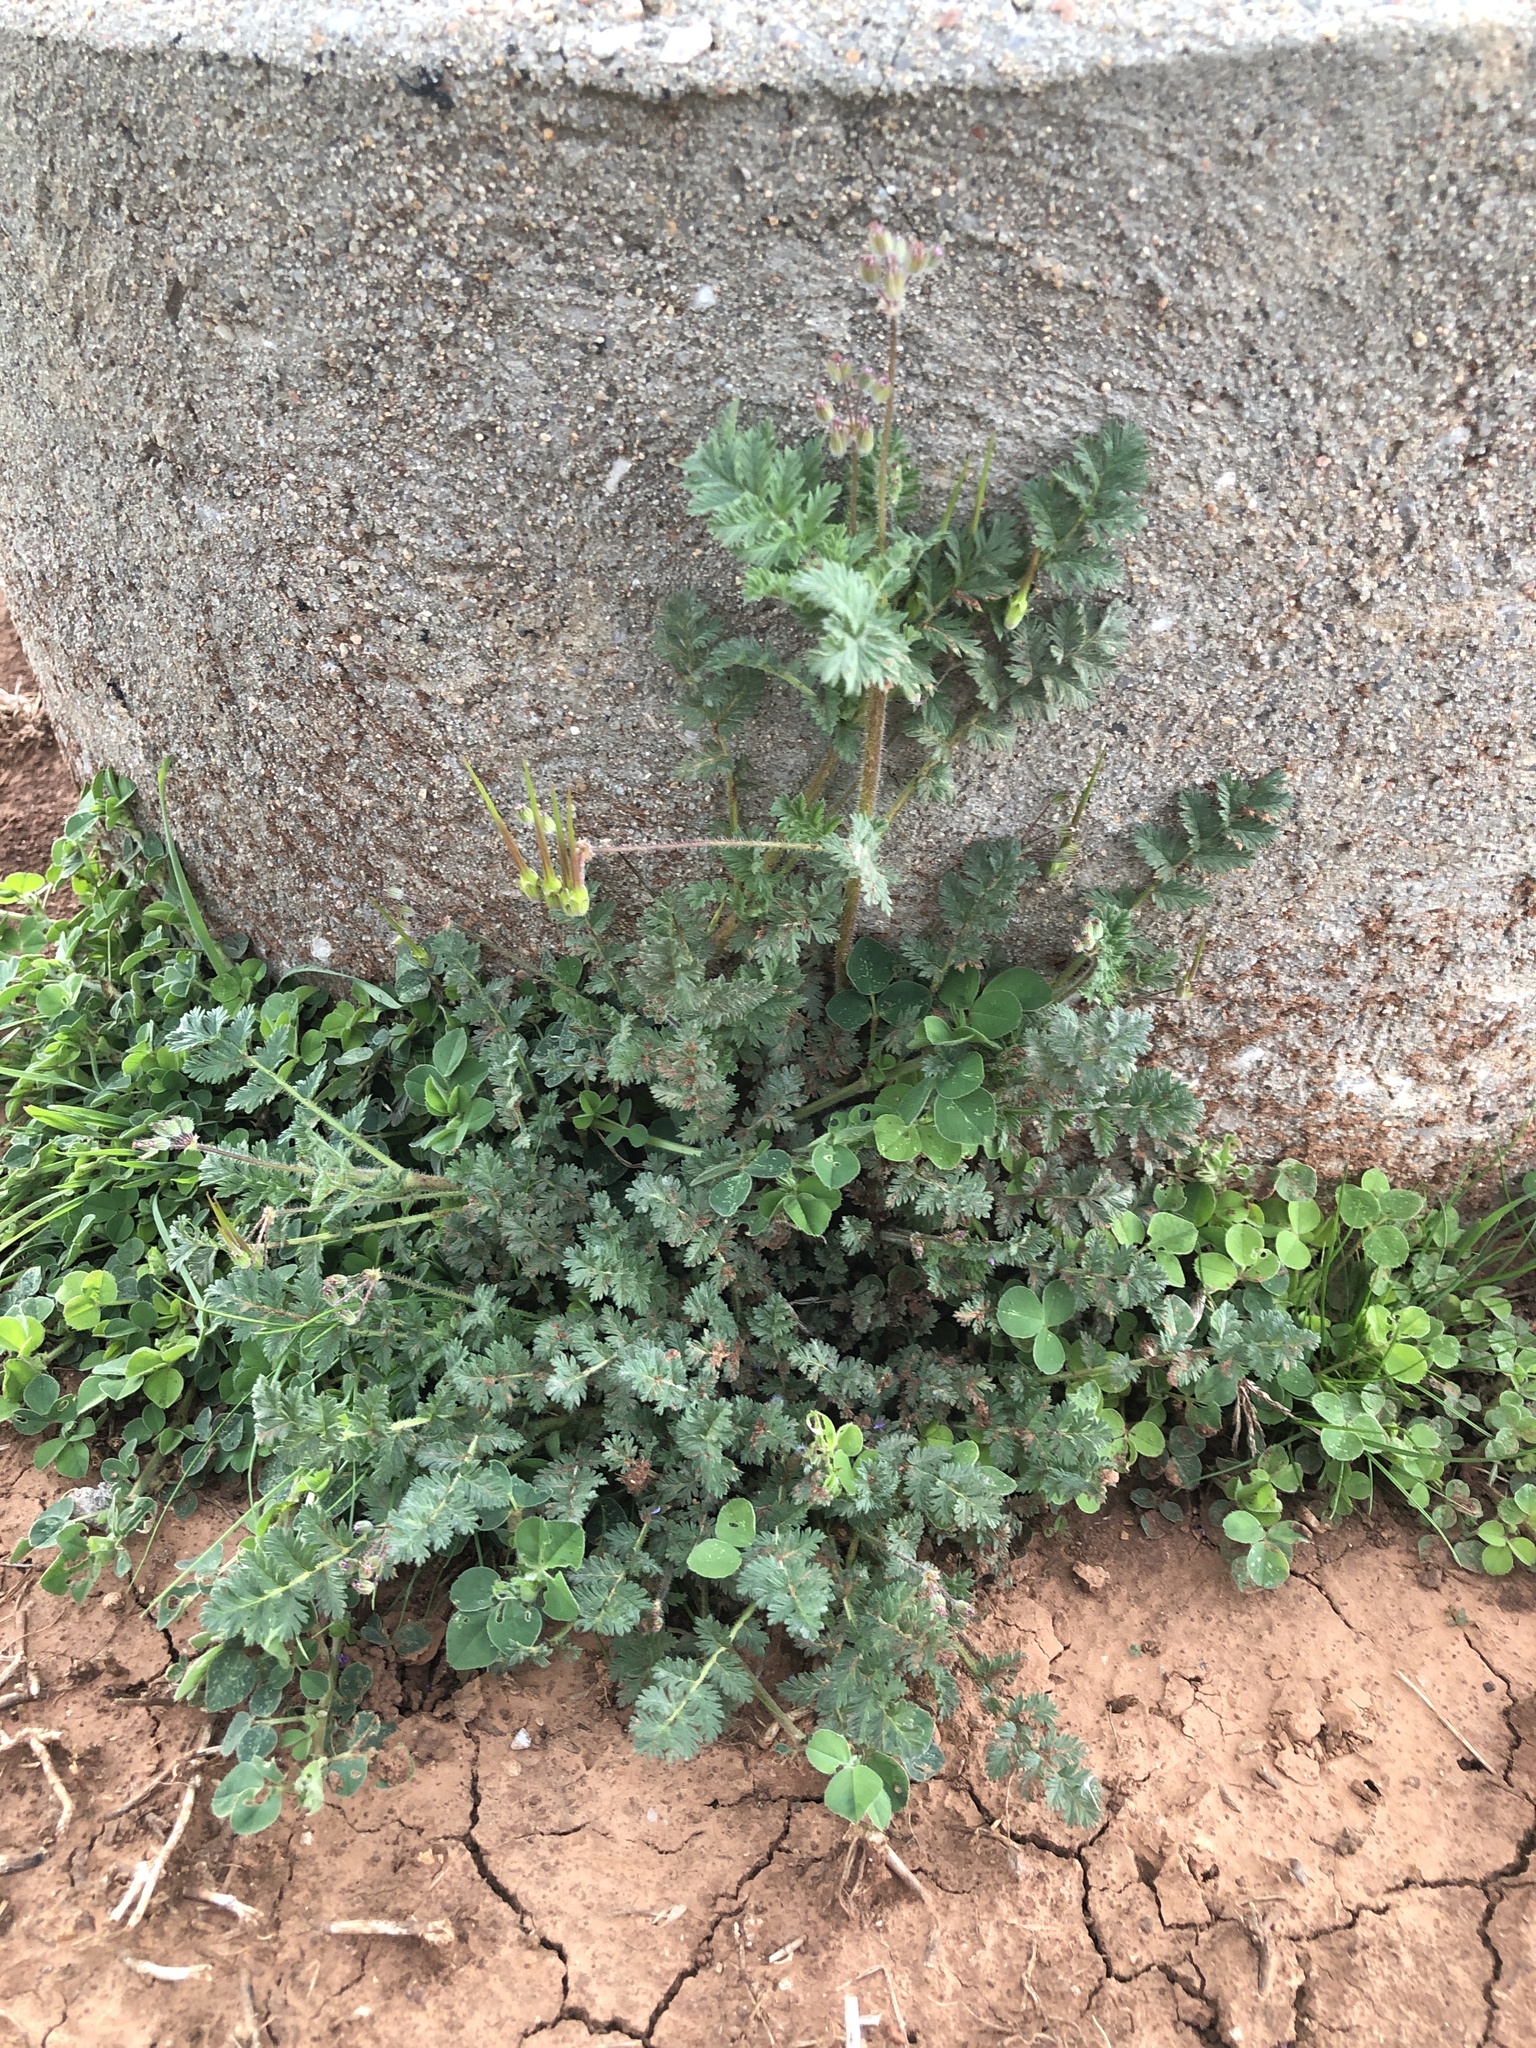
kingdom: Plantae
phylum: Tracheophyta
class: Magnoliopsida
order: Geraniales
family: Geraniaceae
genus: Erodium
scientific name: Erodium cicutarium
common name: Common stork's-bill
